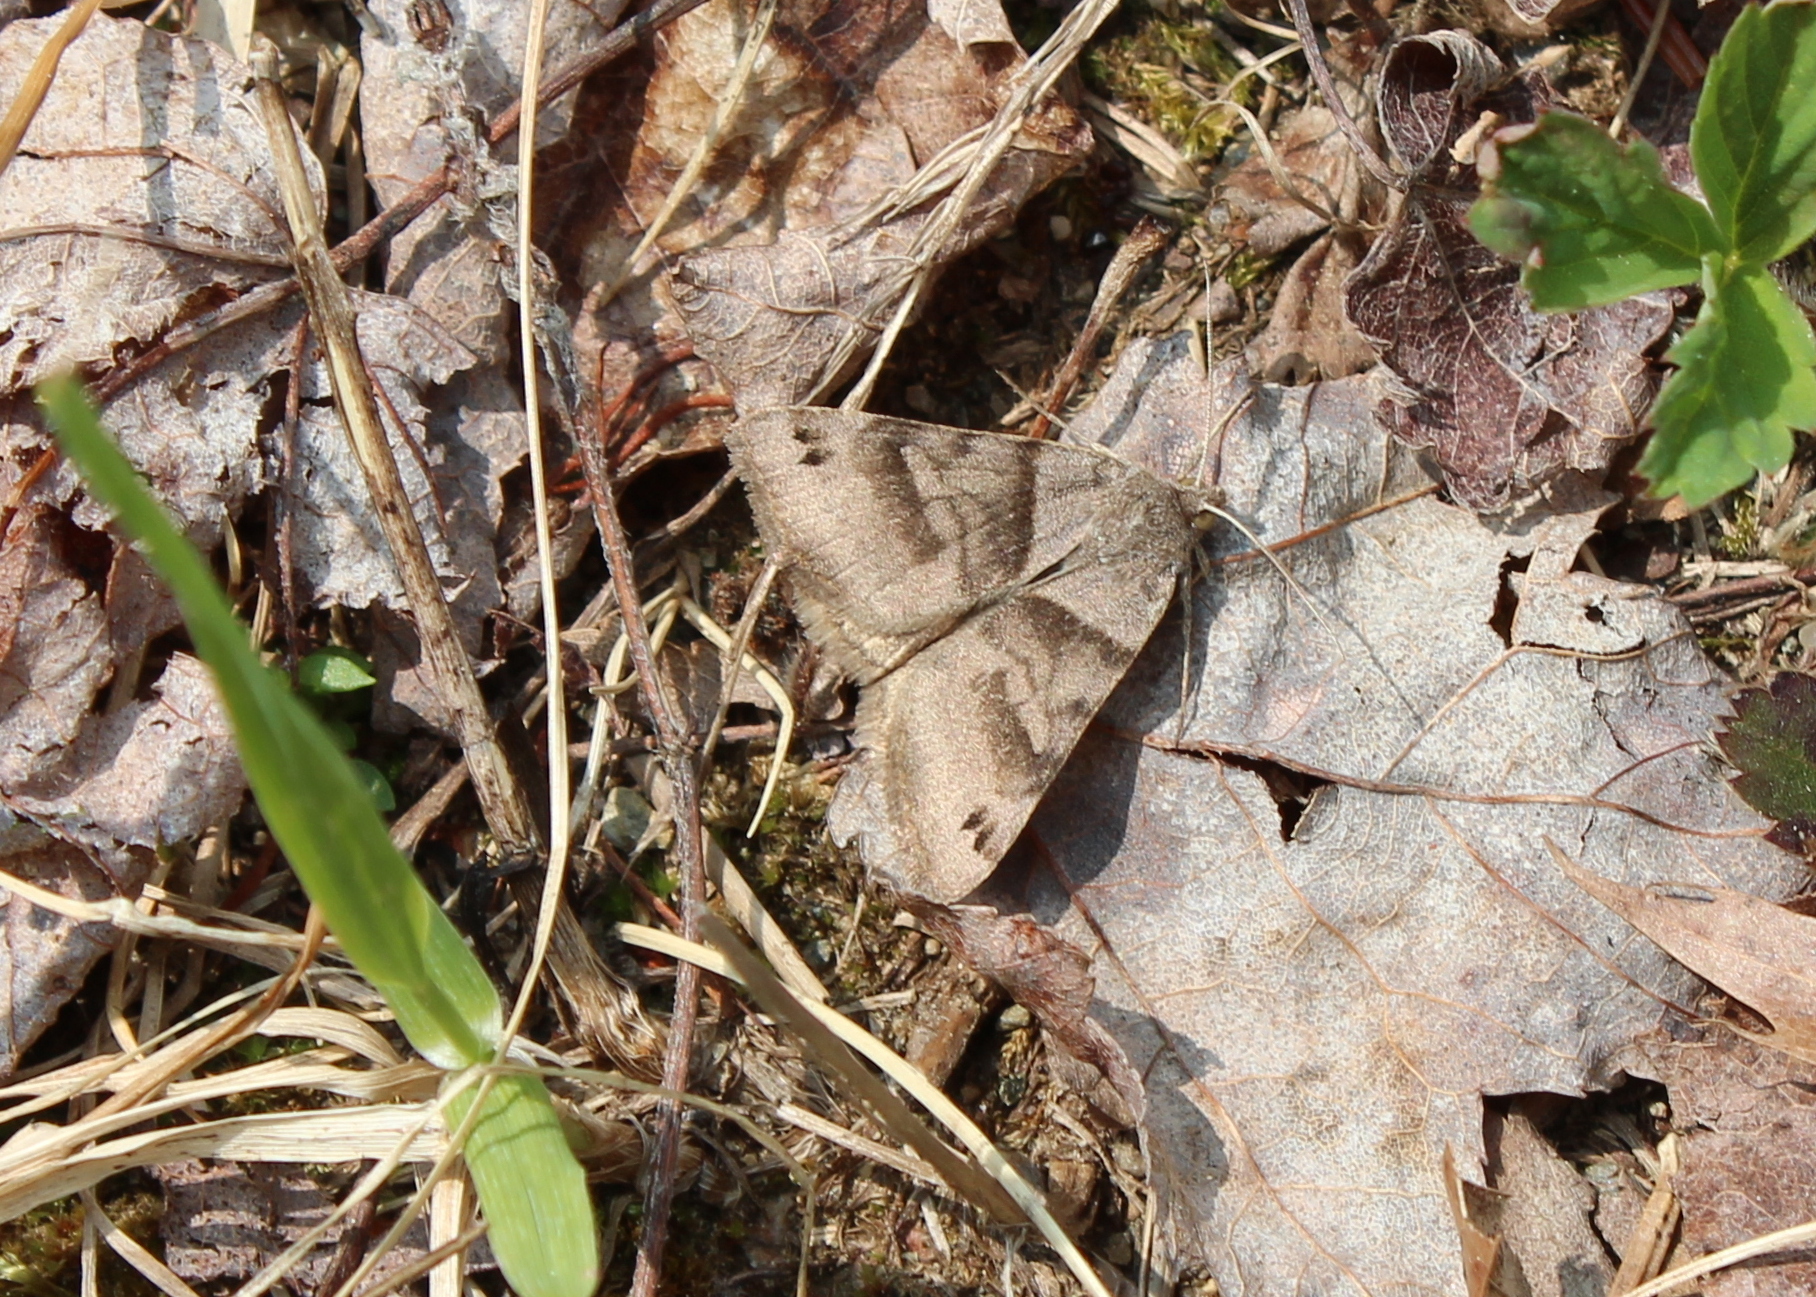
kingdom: Animalia
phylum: Arthropoda
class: Insecta
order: Lepidoptera
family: Erebidae
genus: Caenurgina
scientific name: Caenurgina crassiuscula
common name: Double-barred
